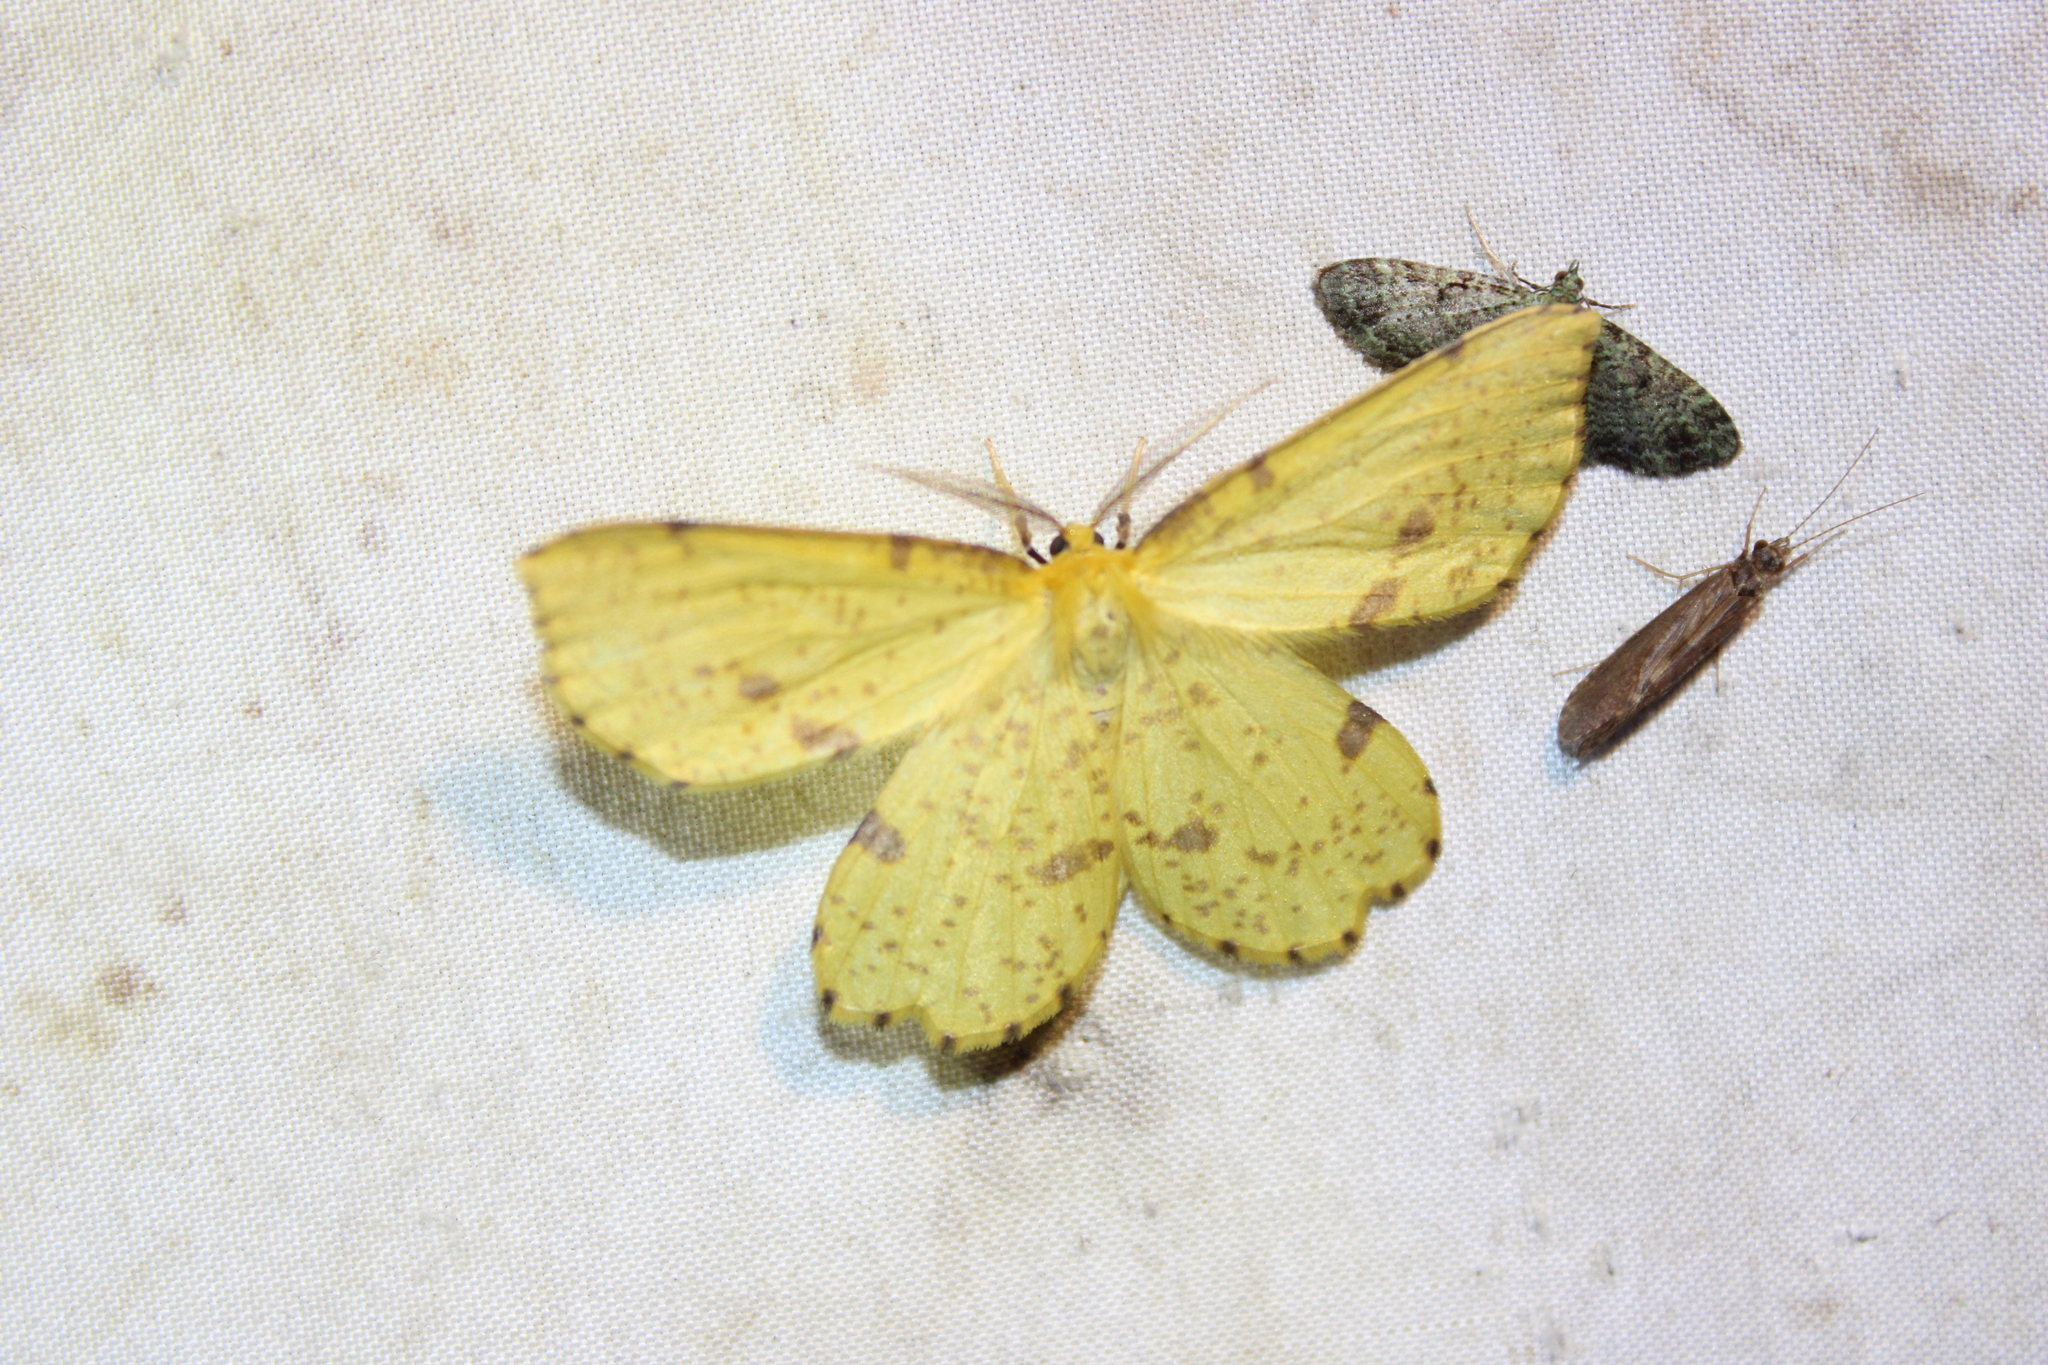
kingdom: Animalia
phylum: Arthropoda
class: Insecta
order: Lepidoptera
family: Geometridae
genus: Xanthotype
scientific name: Xanthotype
